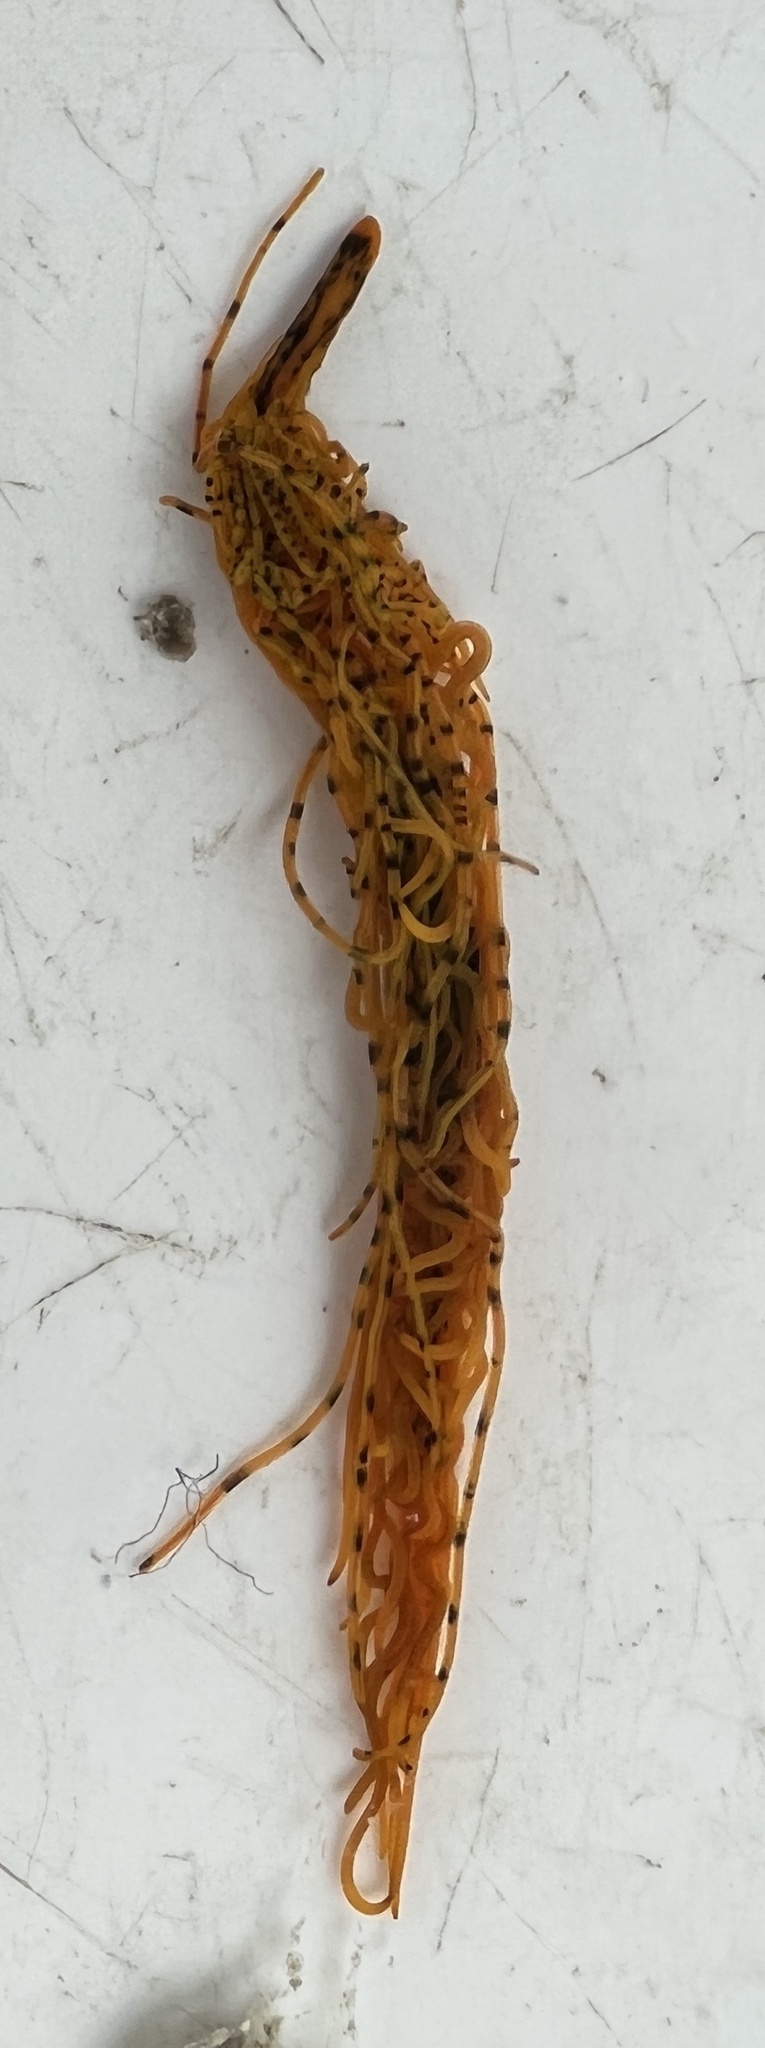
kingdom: Animalia
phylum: Annelida
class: Polychaeta
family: Cirratulidae
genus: Timarete
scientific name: Timarete punctata
